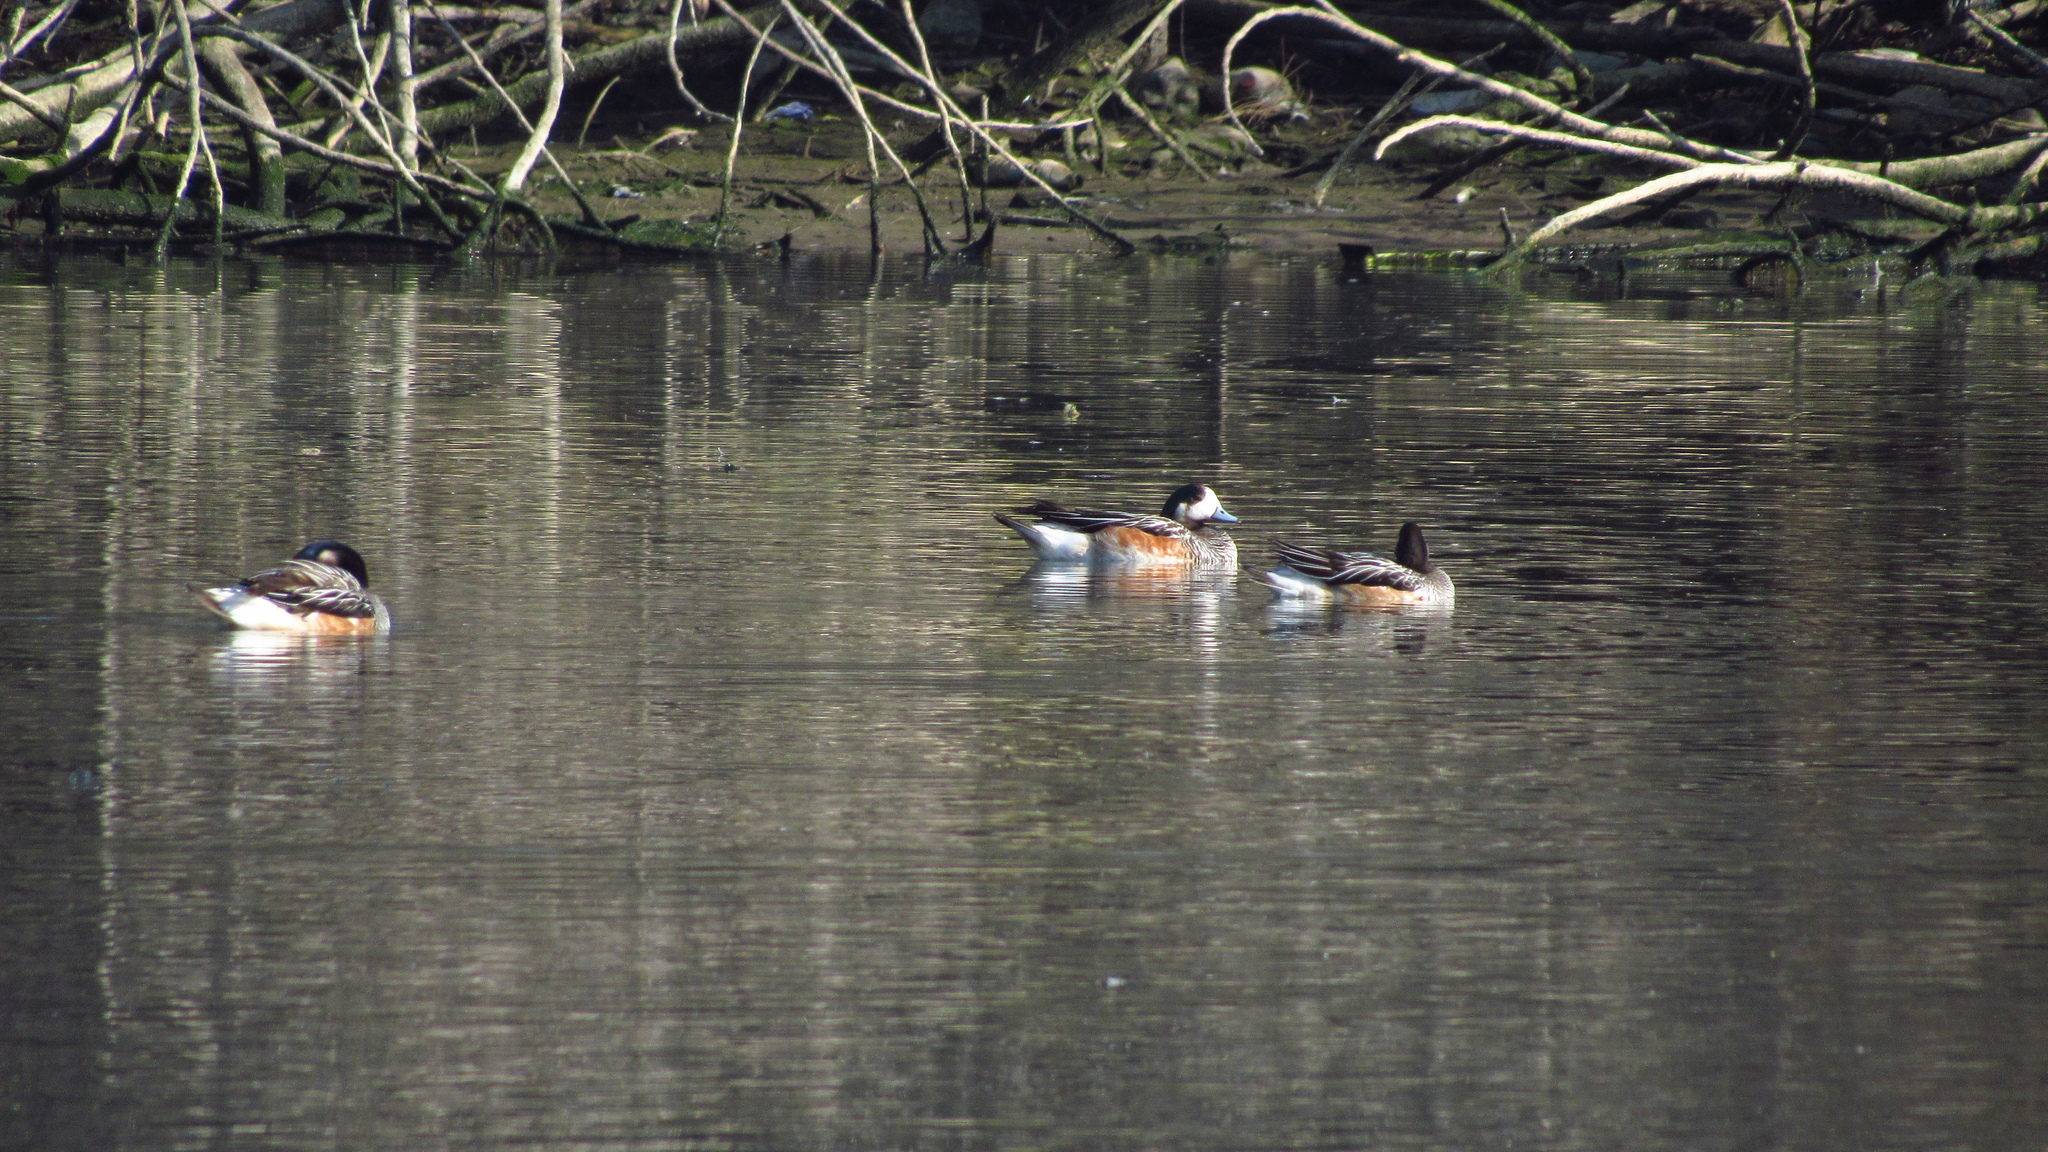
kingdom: Animalia
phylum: Chordata
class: Aves
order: Anseriformes
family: Anatidae
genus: Mareca
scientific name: Mareca sibilatrix
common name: Chiloe wigeon
